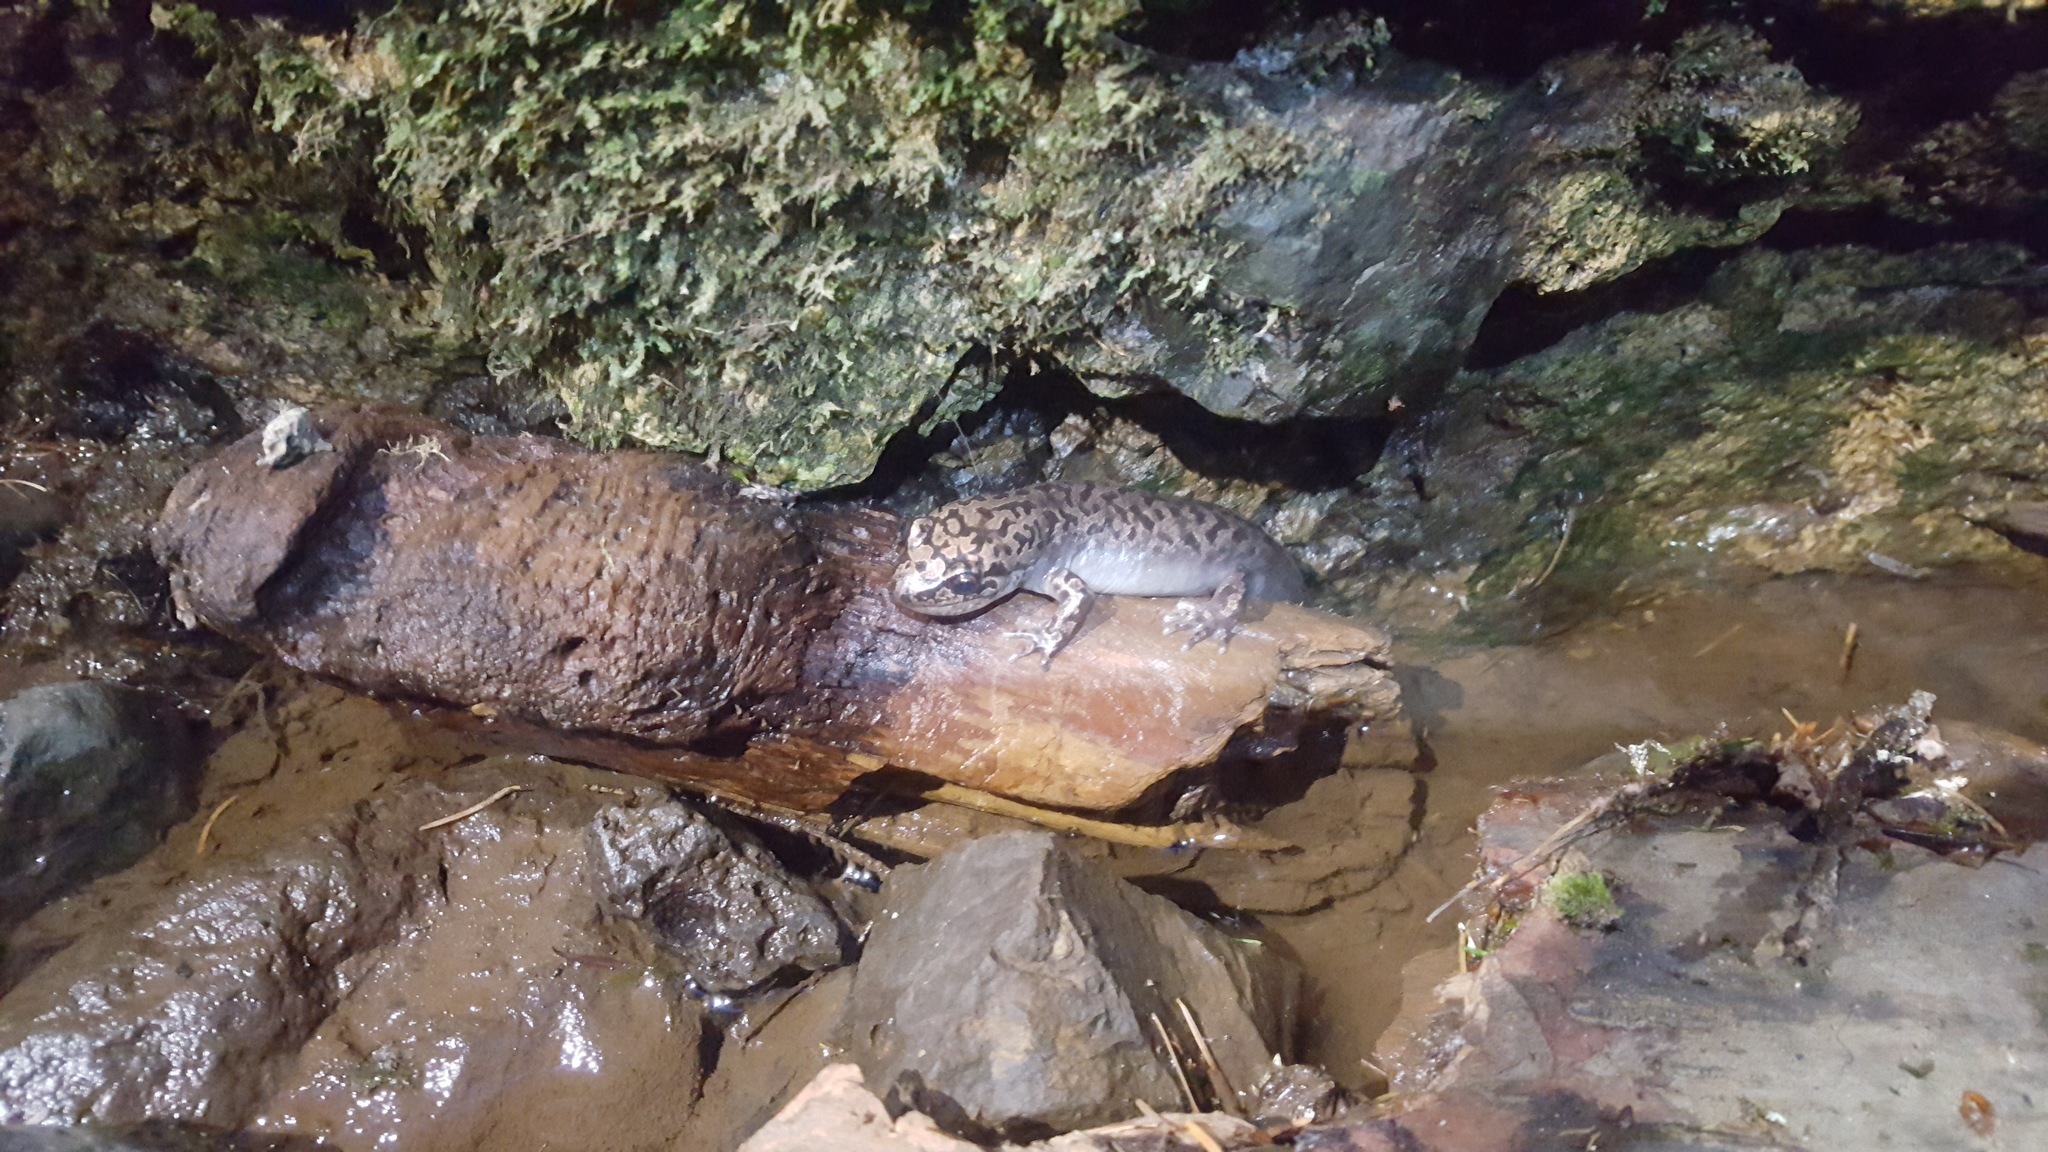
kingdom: Animalia
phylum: Chordata
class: Amphibia
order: Caudata
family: Ambystomatidae
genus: Dicamptodon
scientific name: Dicamptodon tenebrosus
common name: Coastal giant salamander
